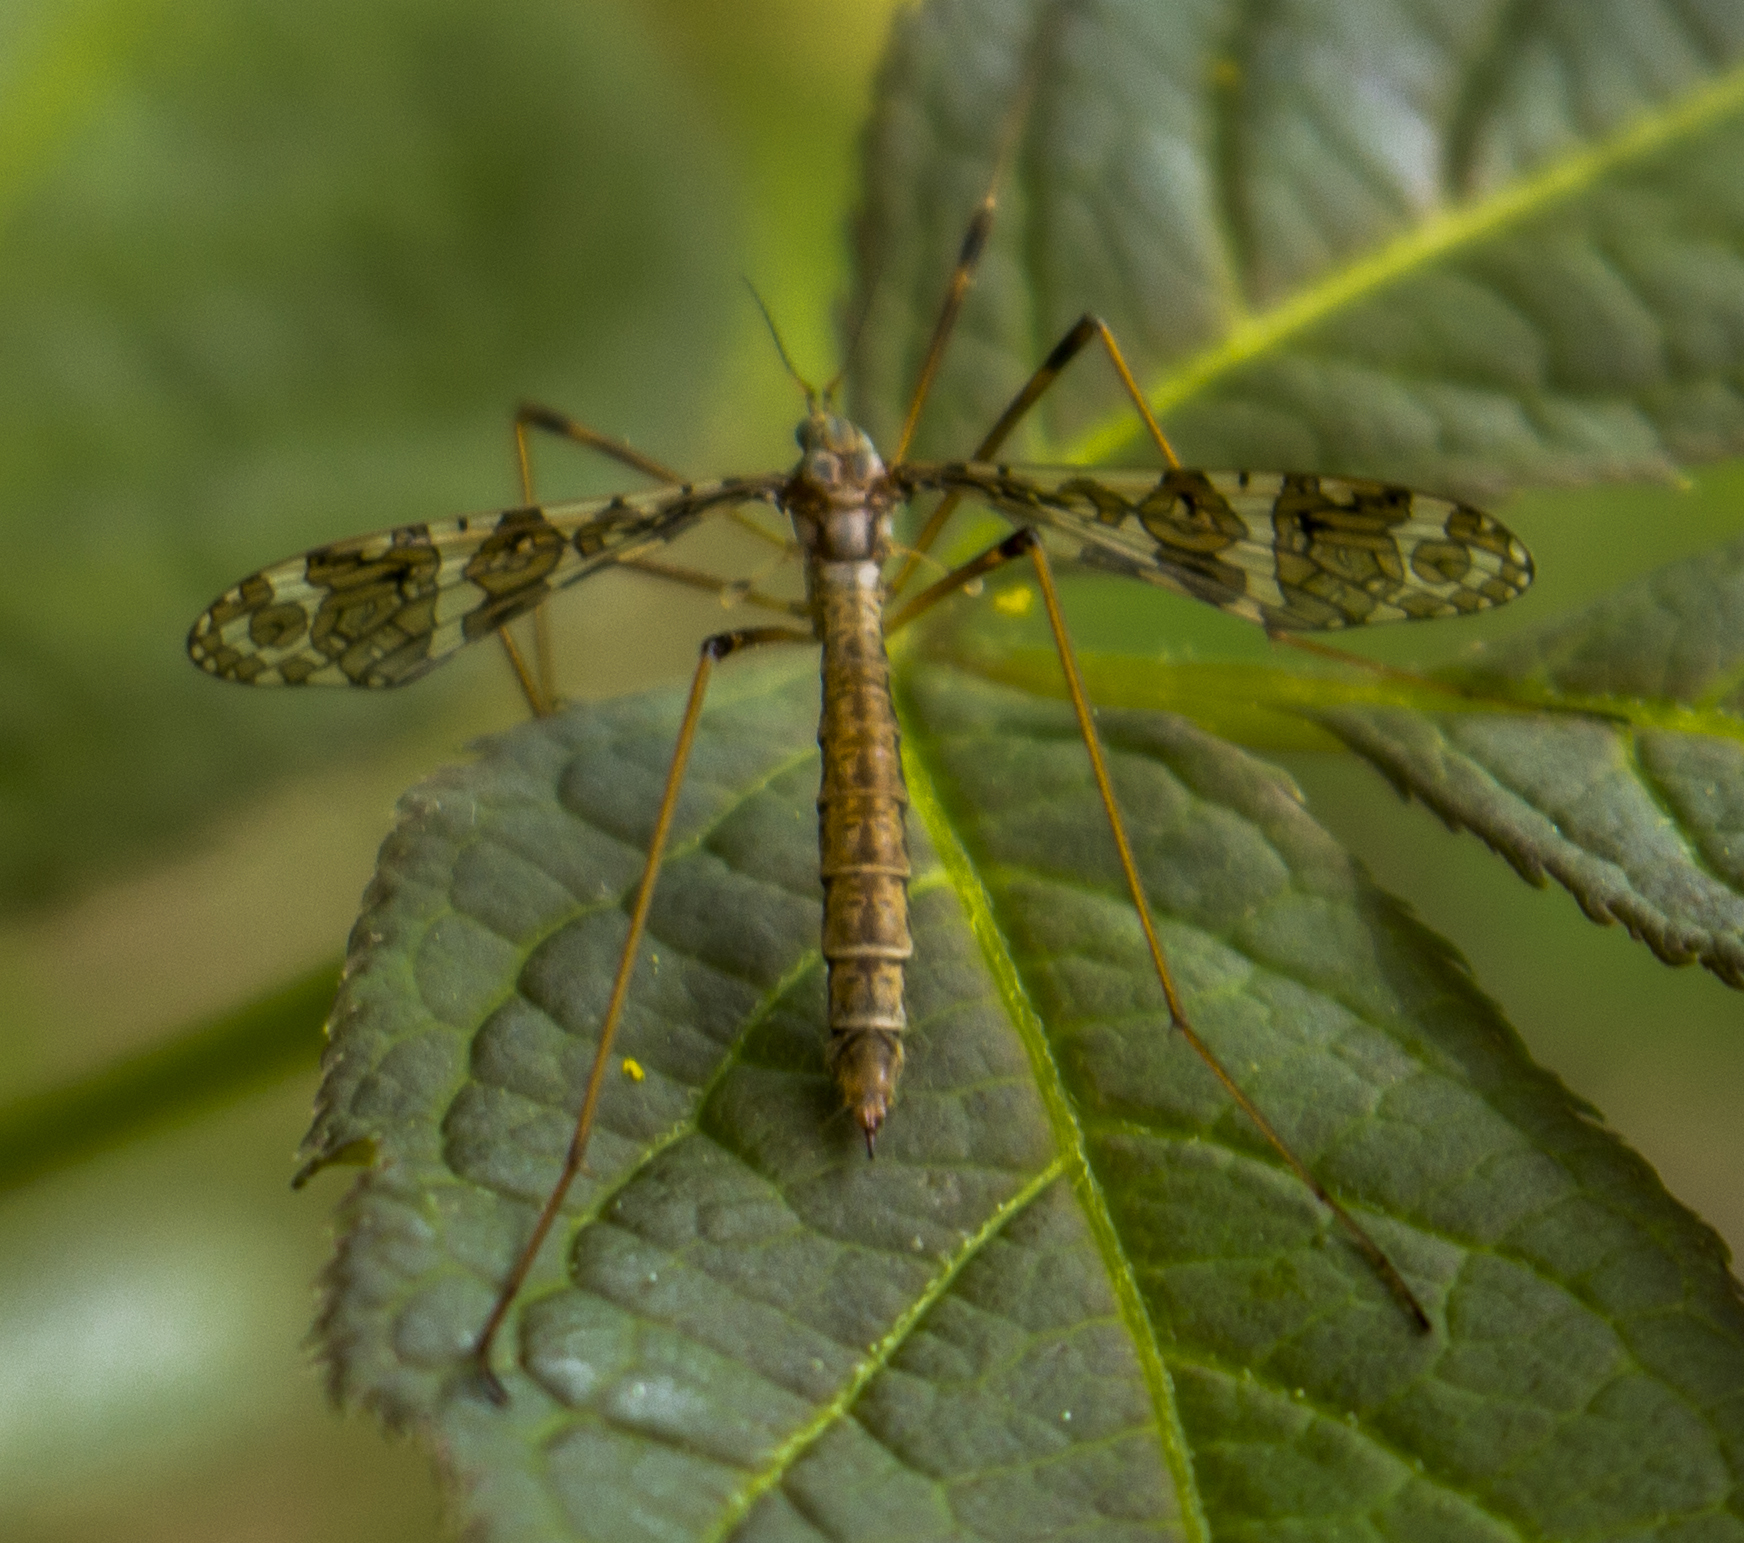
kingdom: Animalia
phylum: Arthropoda
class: Insecta
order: Diptera
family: Limoniidae
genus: Epiphragma
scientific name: Epiphragma fasciapenne
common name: Band-winged crane fly
